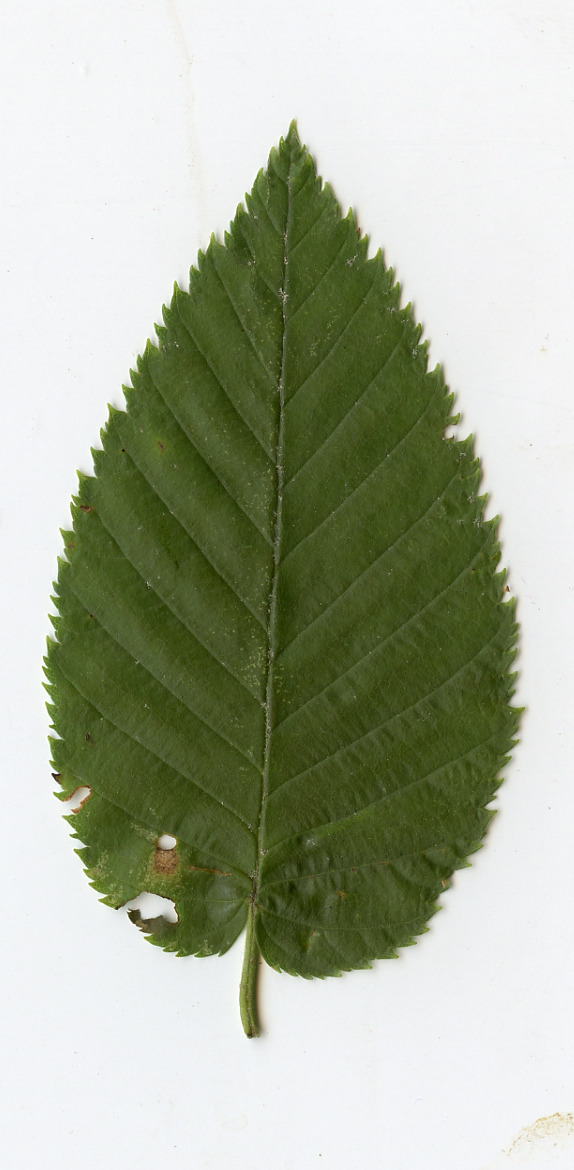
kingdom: Plantae
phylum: Tracheophyta
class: Magnoliopsida
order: Fagales
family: Betulaceae
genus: Betula
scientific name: Betula lenta
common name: Black birch
